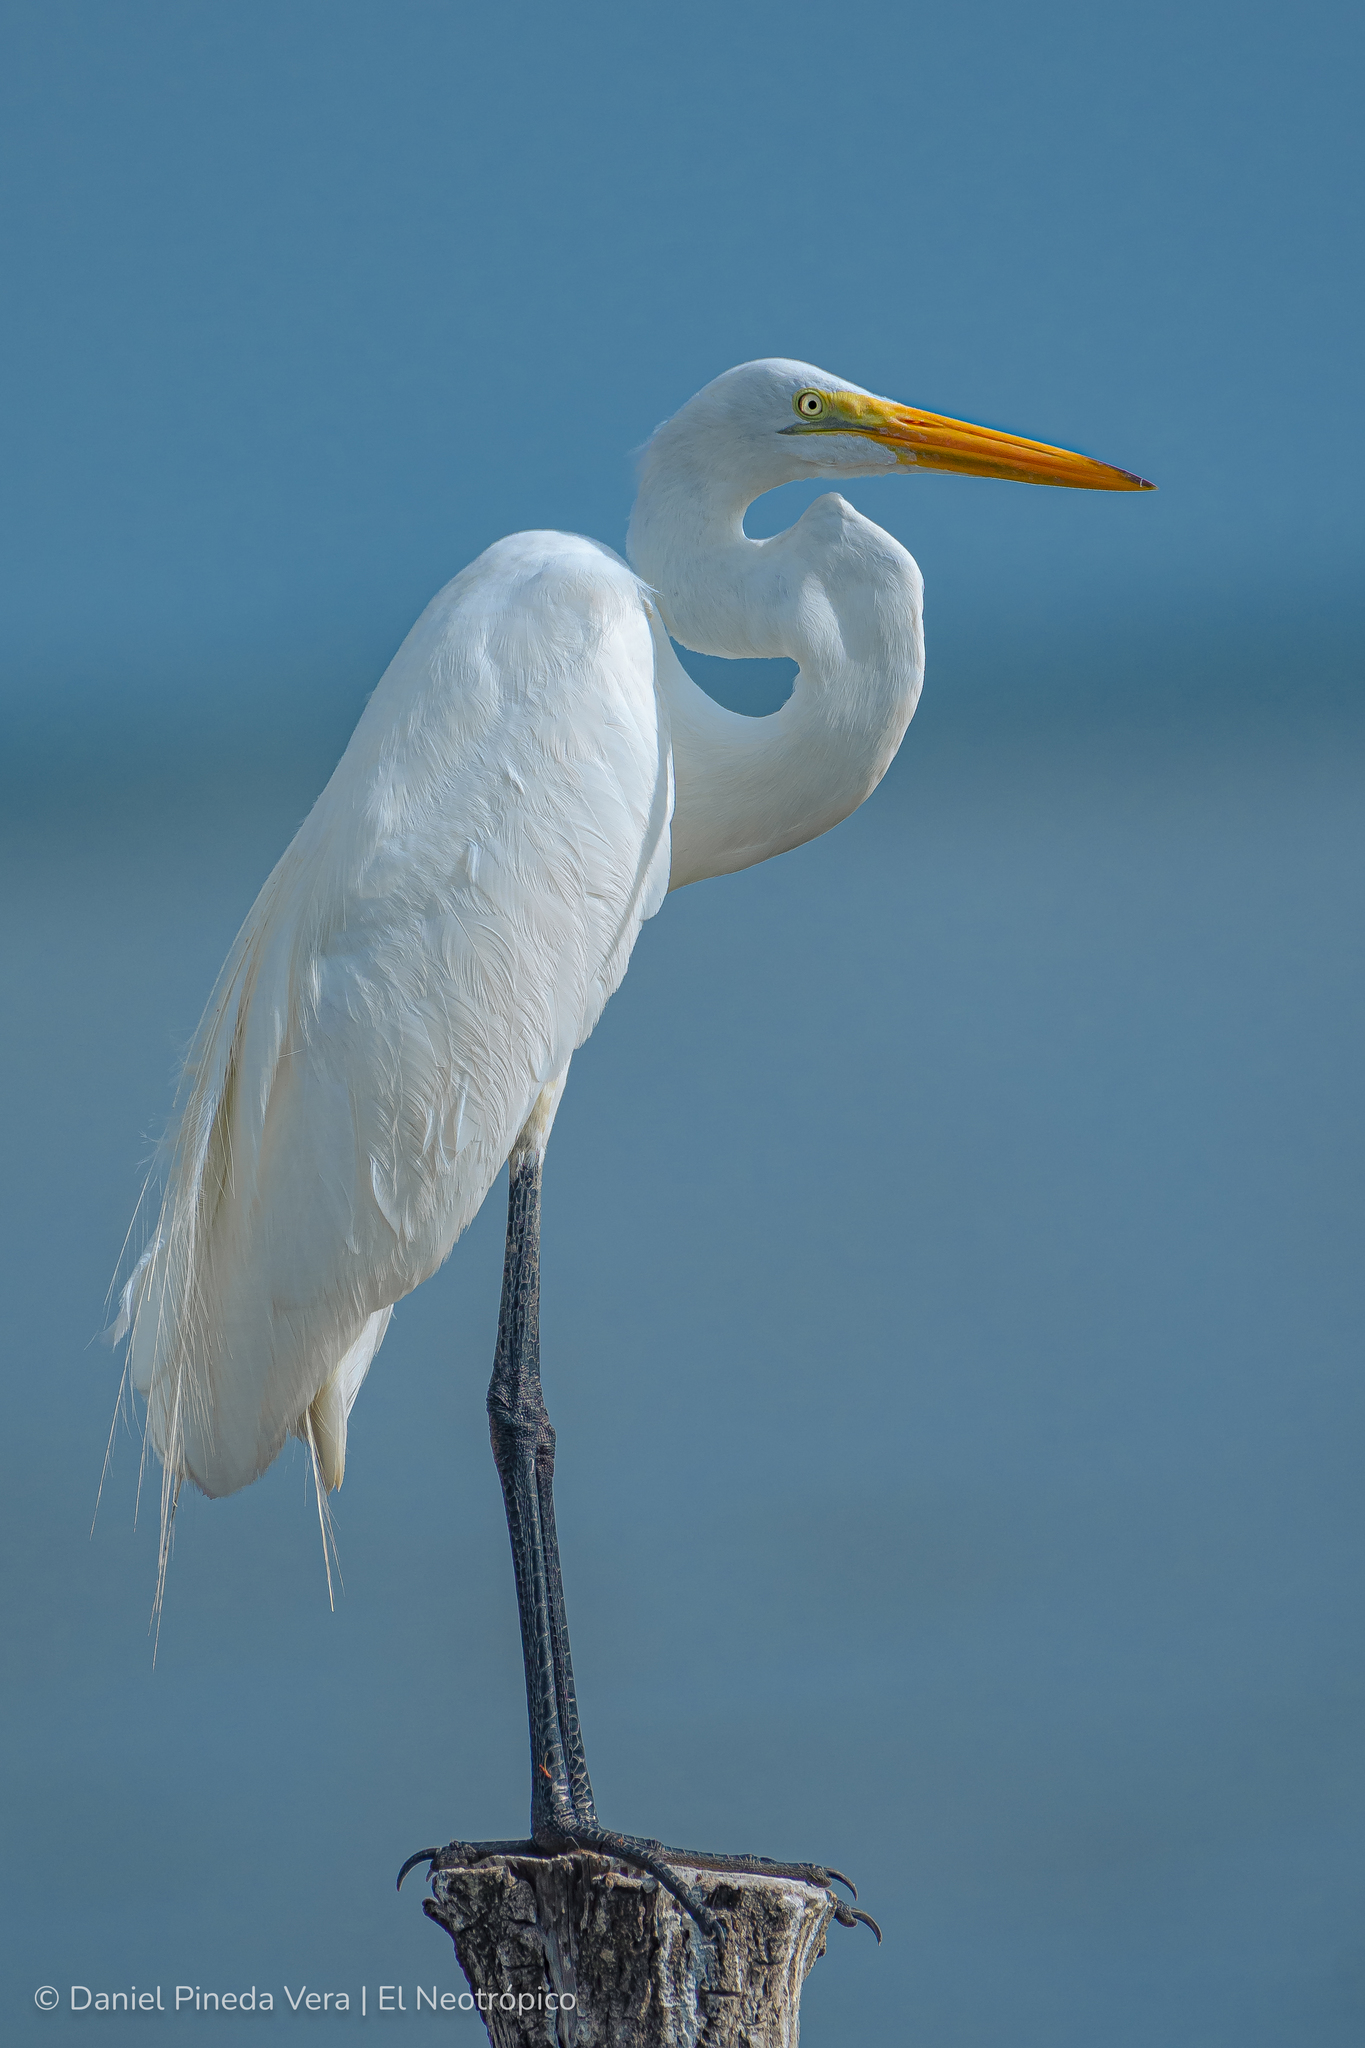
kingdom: Animalia
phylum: Chordata
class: Aves
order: Pelecaniformes
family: Ardeidae
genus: Ardea
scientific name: Ardea alba
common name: Great egret
